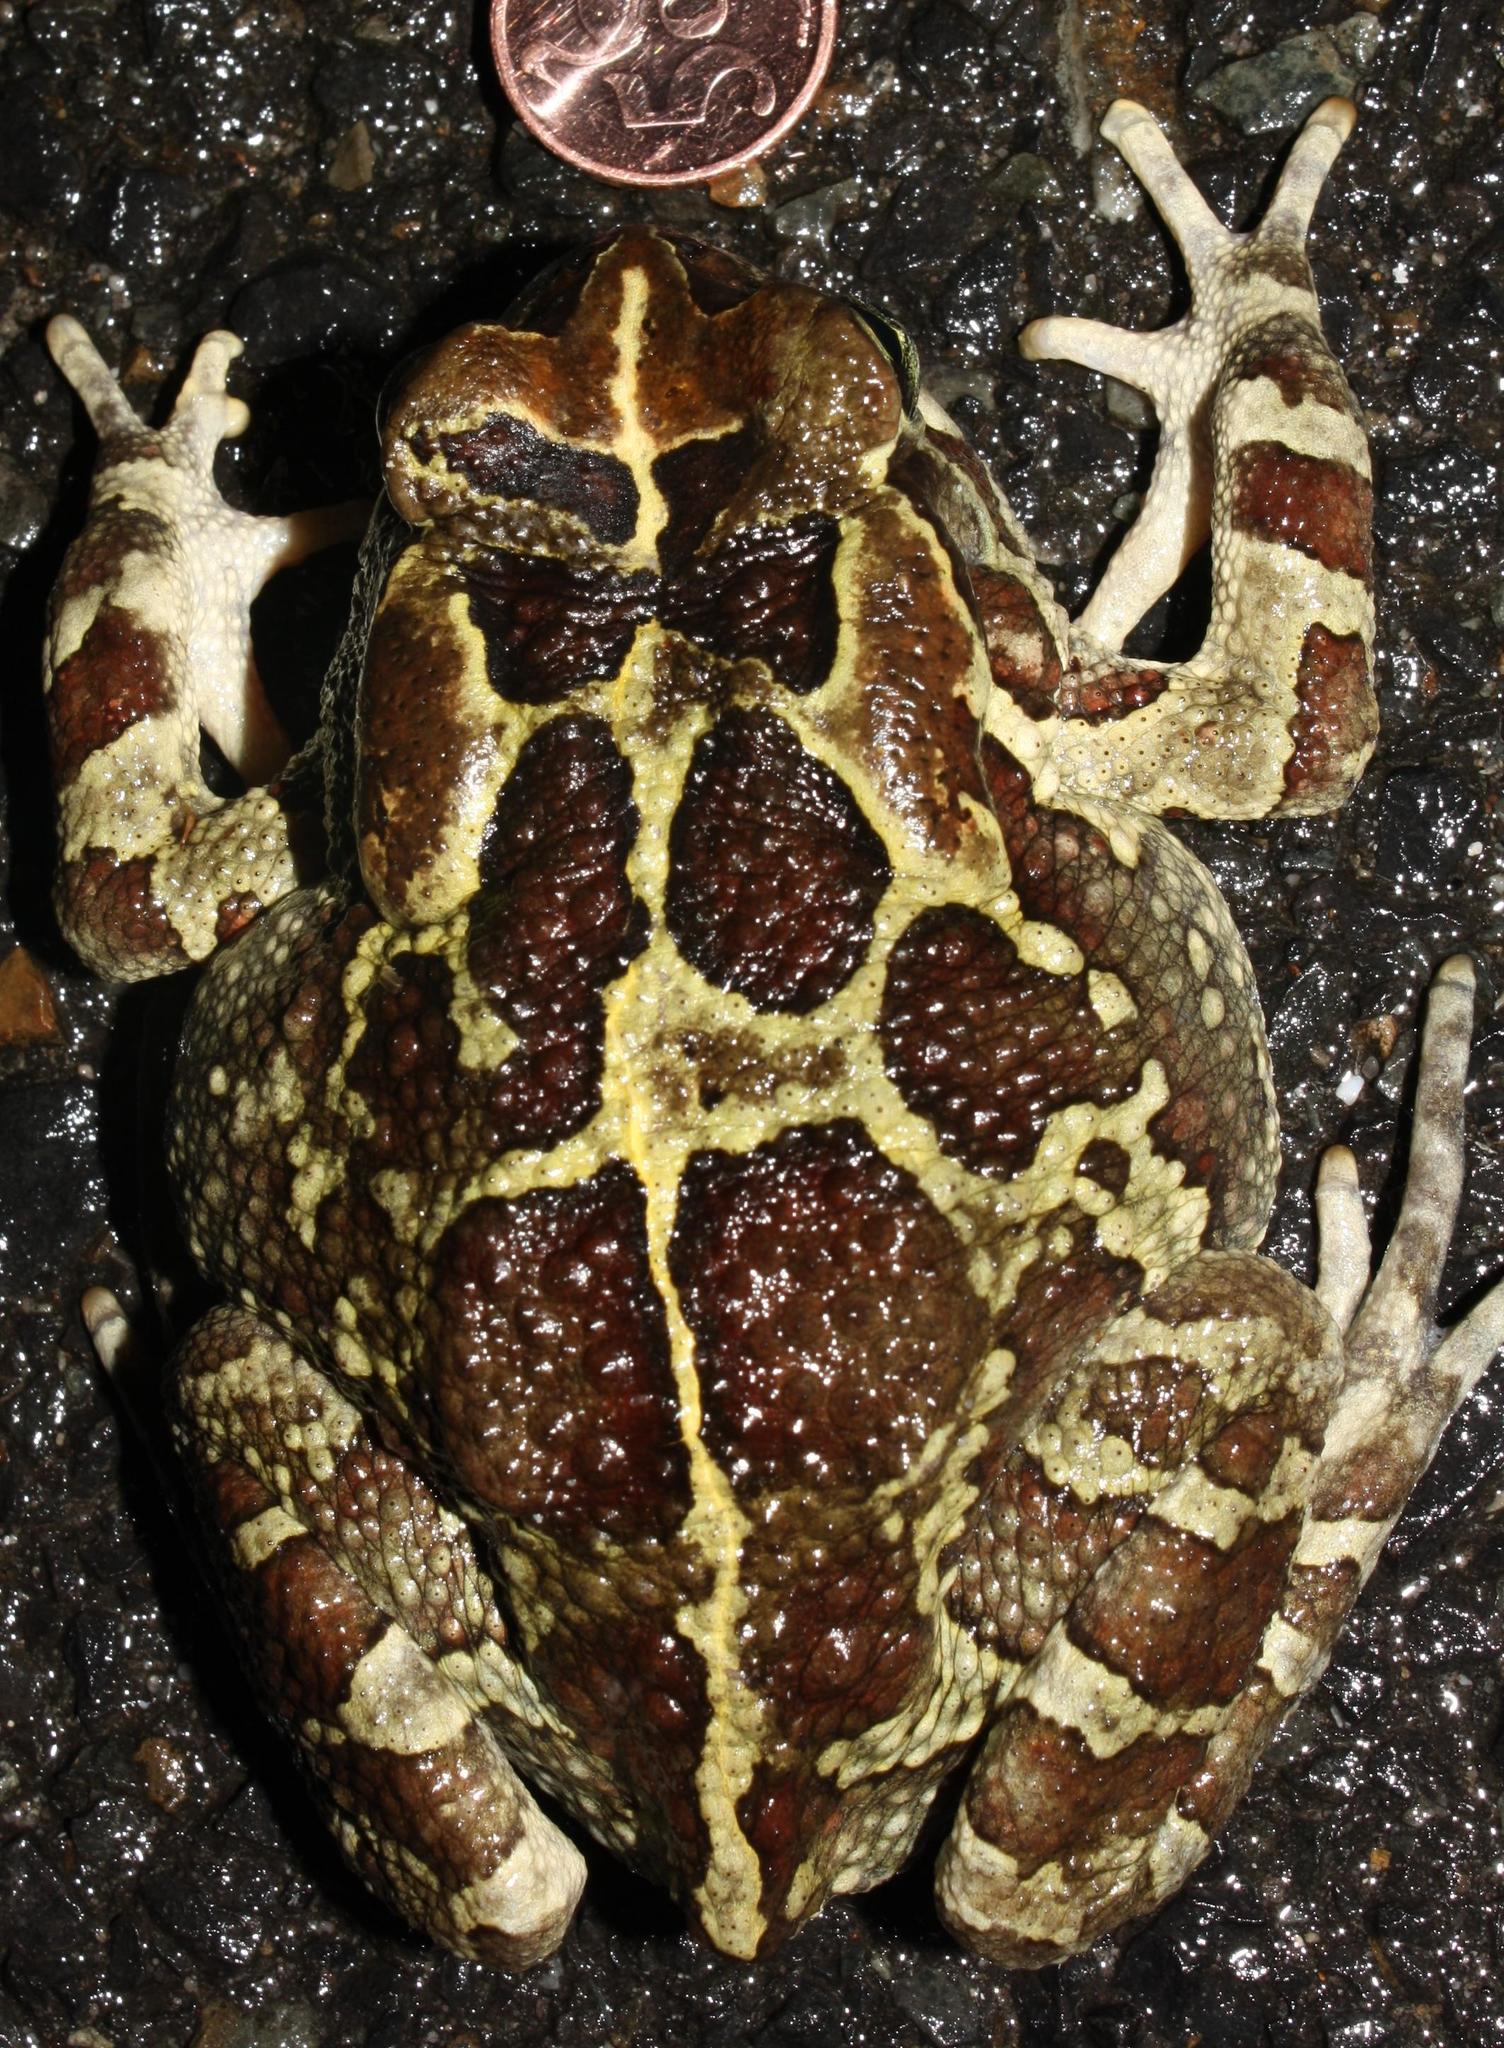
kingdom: Animalia
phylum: Chordata
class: Amphibia
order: Anura
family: Bufonidae
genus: Sclerophrys
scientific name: Sclerophrys pantherina
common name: Panther toad
